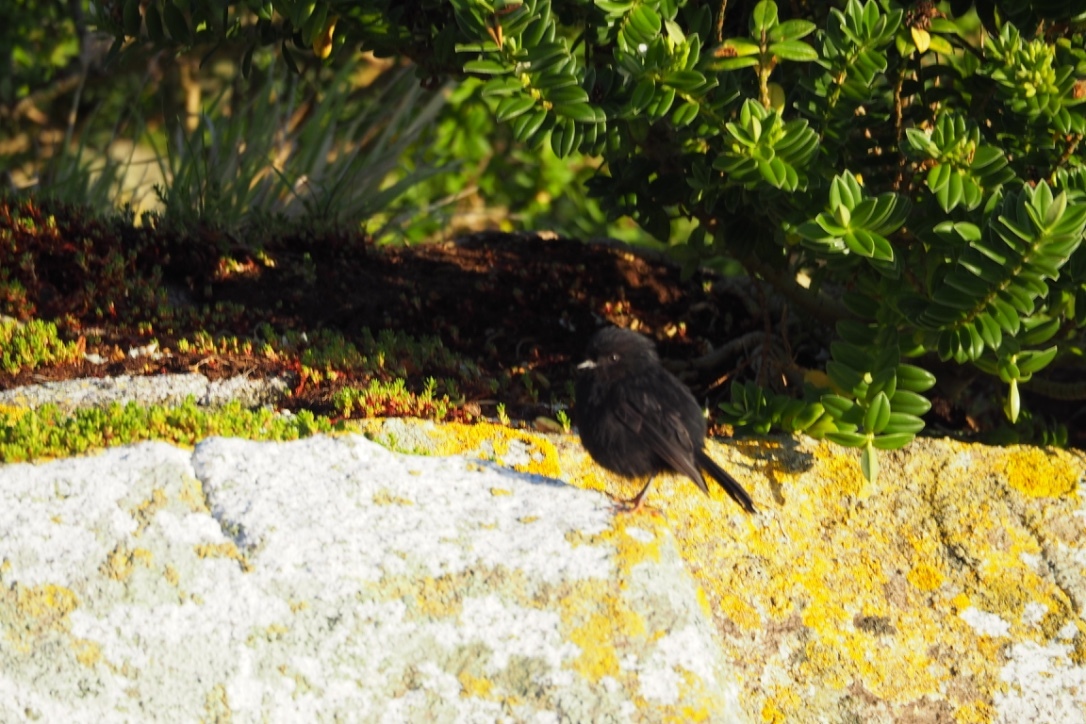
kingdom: Animalia
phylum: Chordata
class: Aves
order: Passeriformes
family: Petroicidae
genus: Petroica
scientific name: Petroica macrocephala
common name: Tomtit
